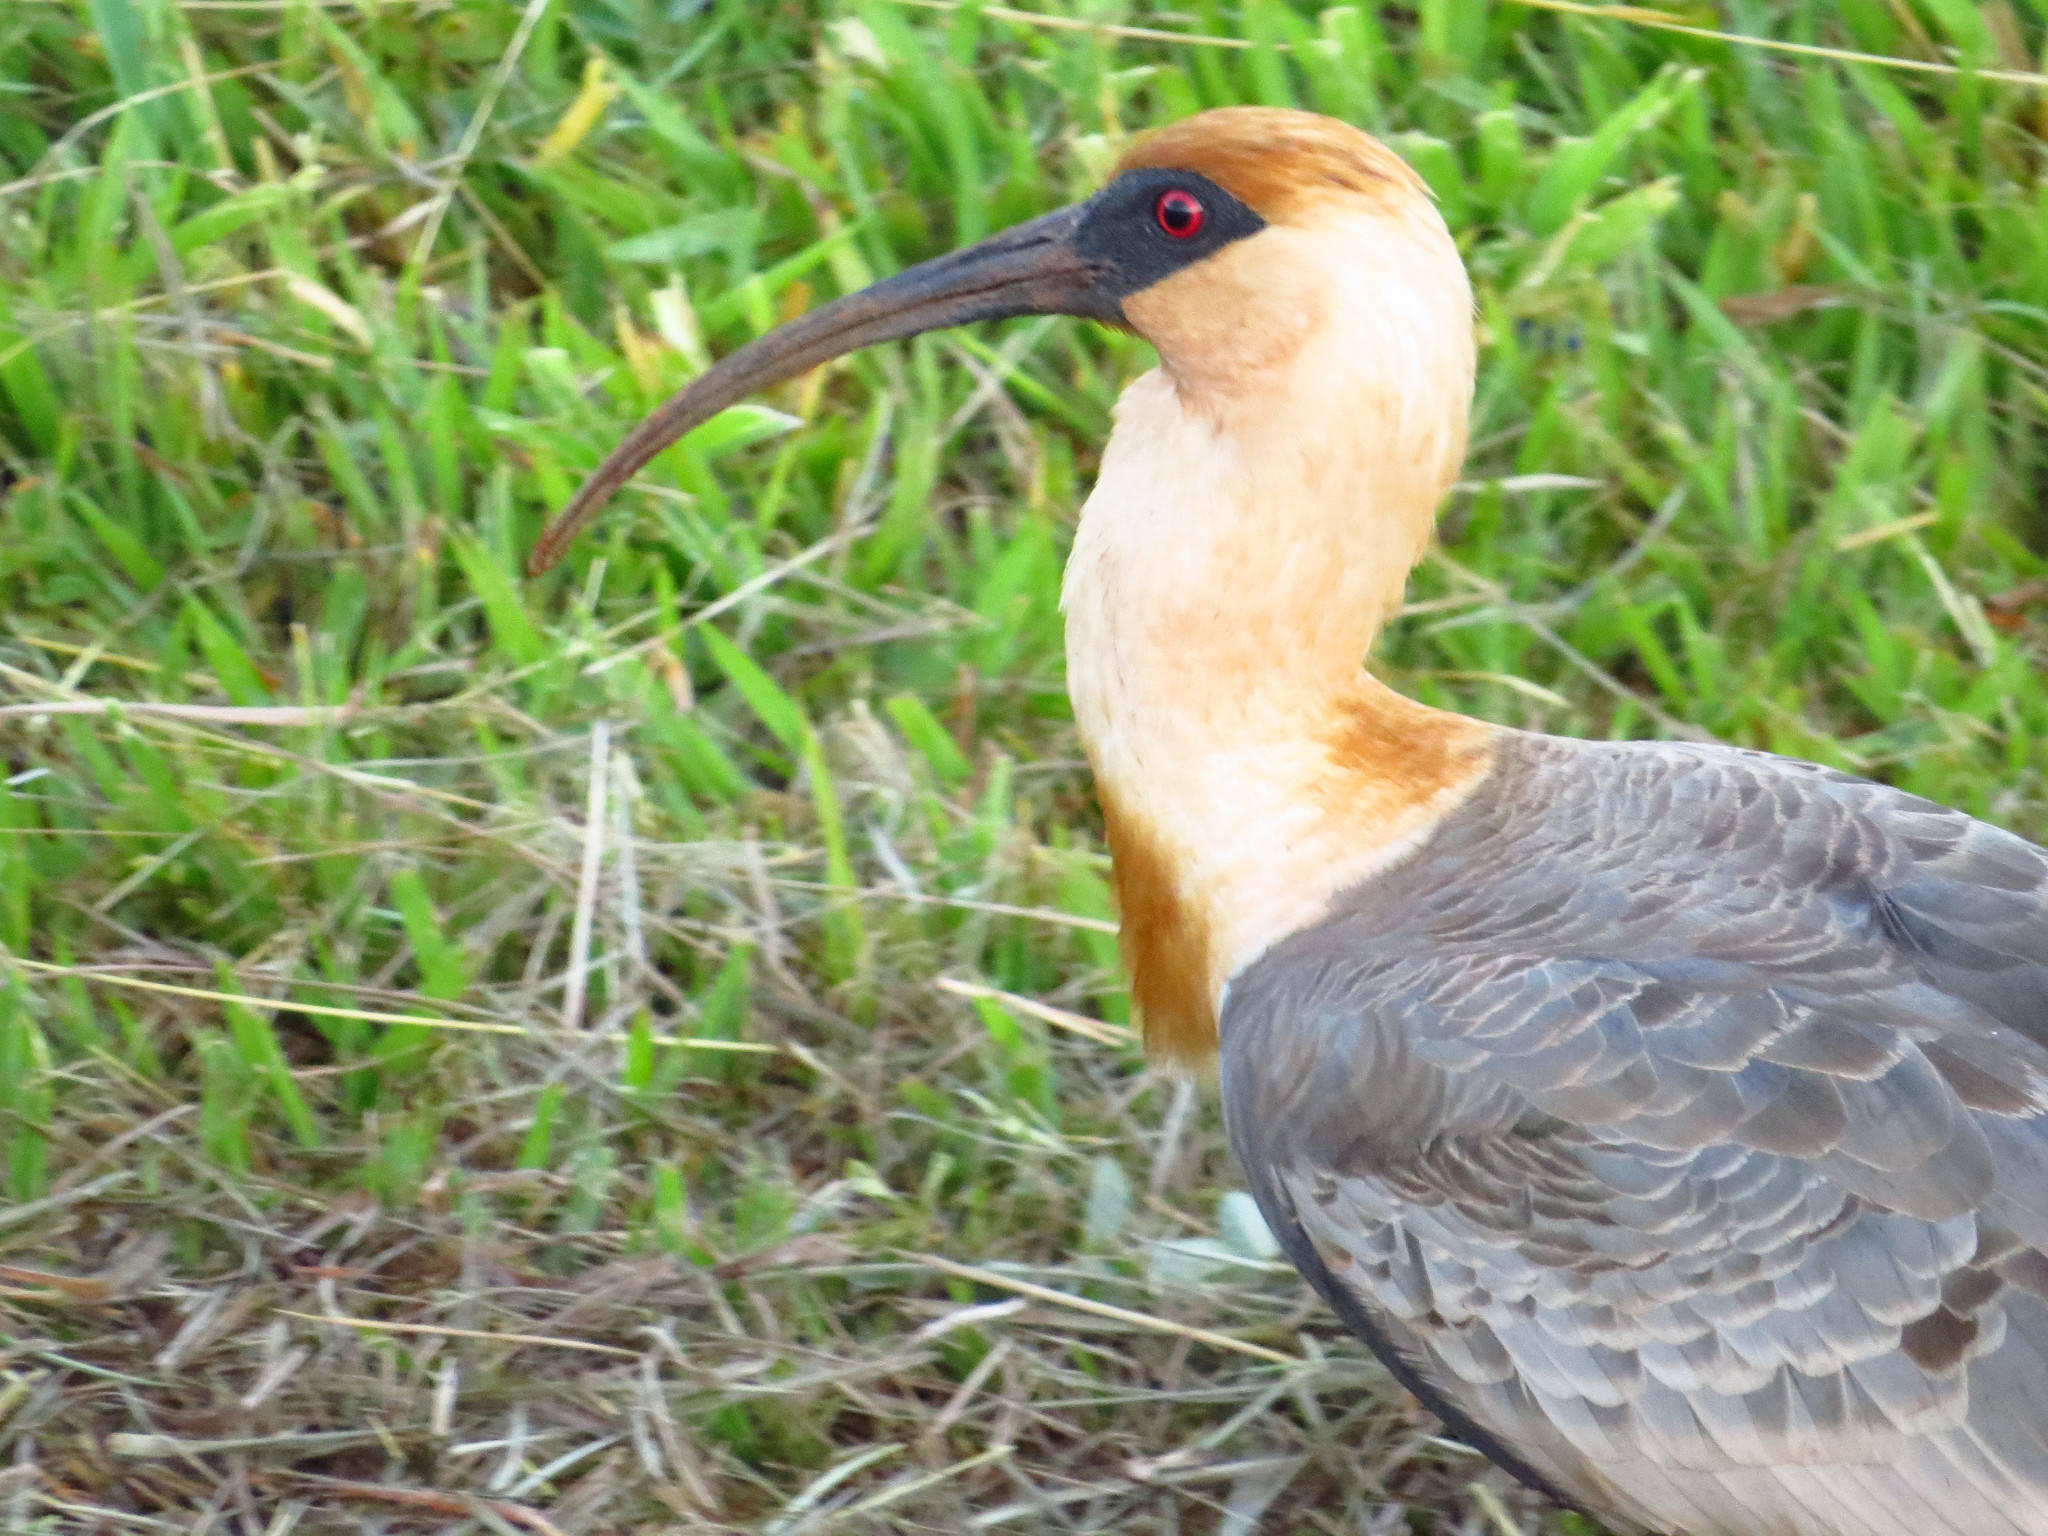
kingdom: Animalia
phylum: Chordata
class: Aves
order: Pelecaniformes
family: Threskiornithidae
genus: Theristicus
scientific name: Theristicus caudatus
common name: Buff-necked ibis
